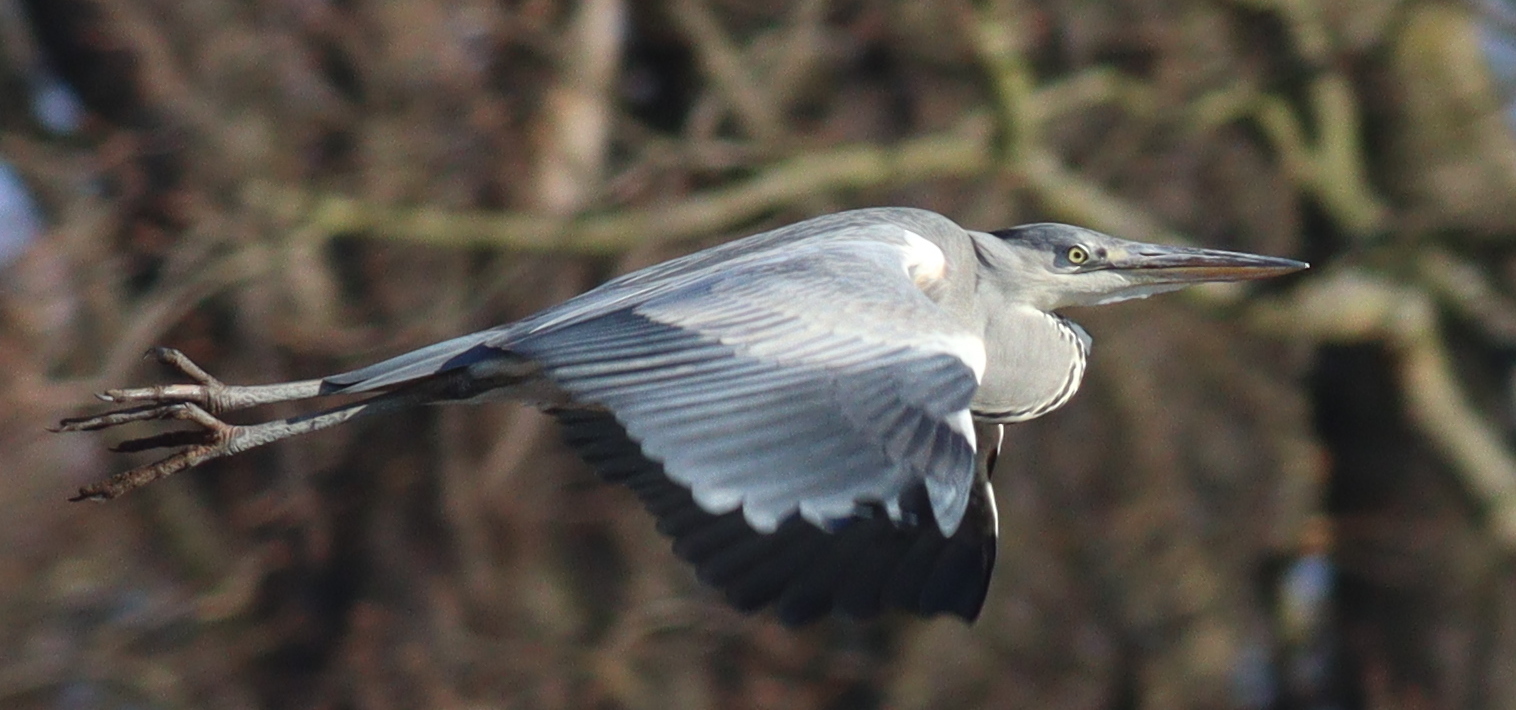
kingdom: Animalia
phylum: Chordata
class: Aves
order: Pelecaniformes
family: Ardeidae
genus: Ardea
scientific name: Ardea cinerea
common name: Grey heron
